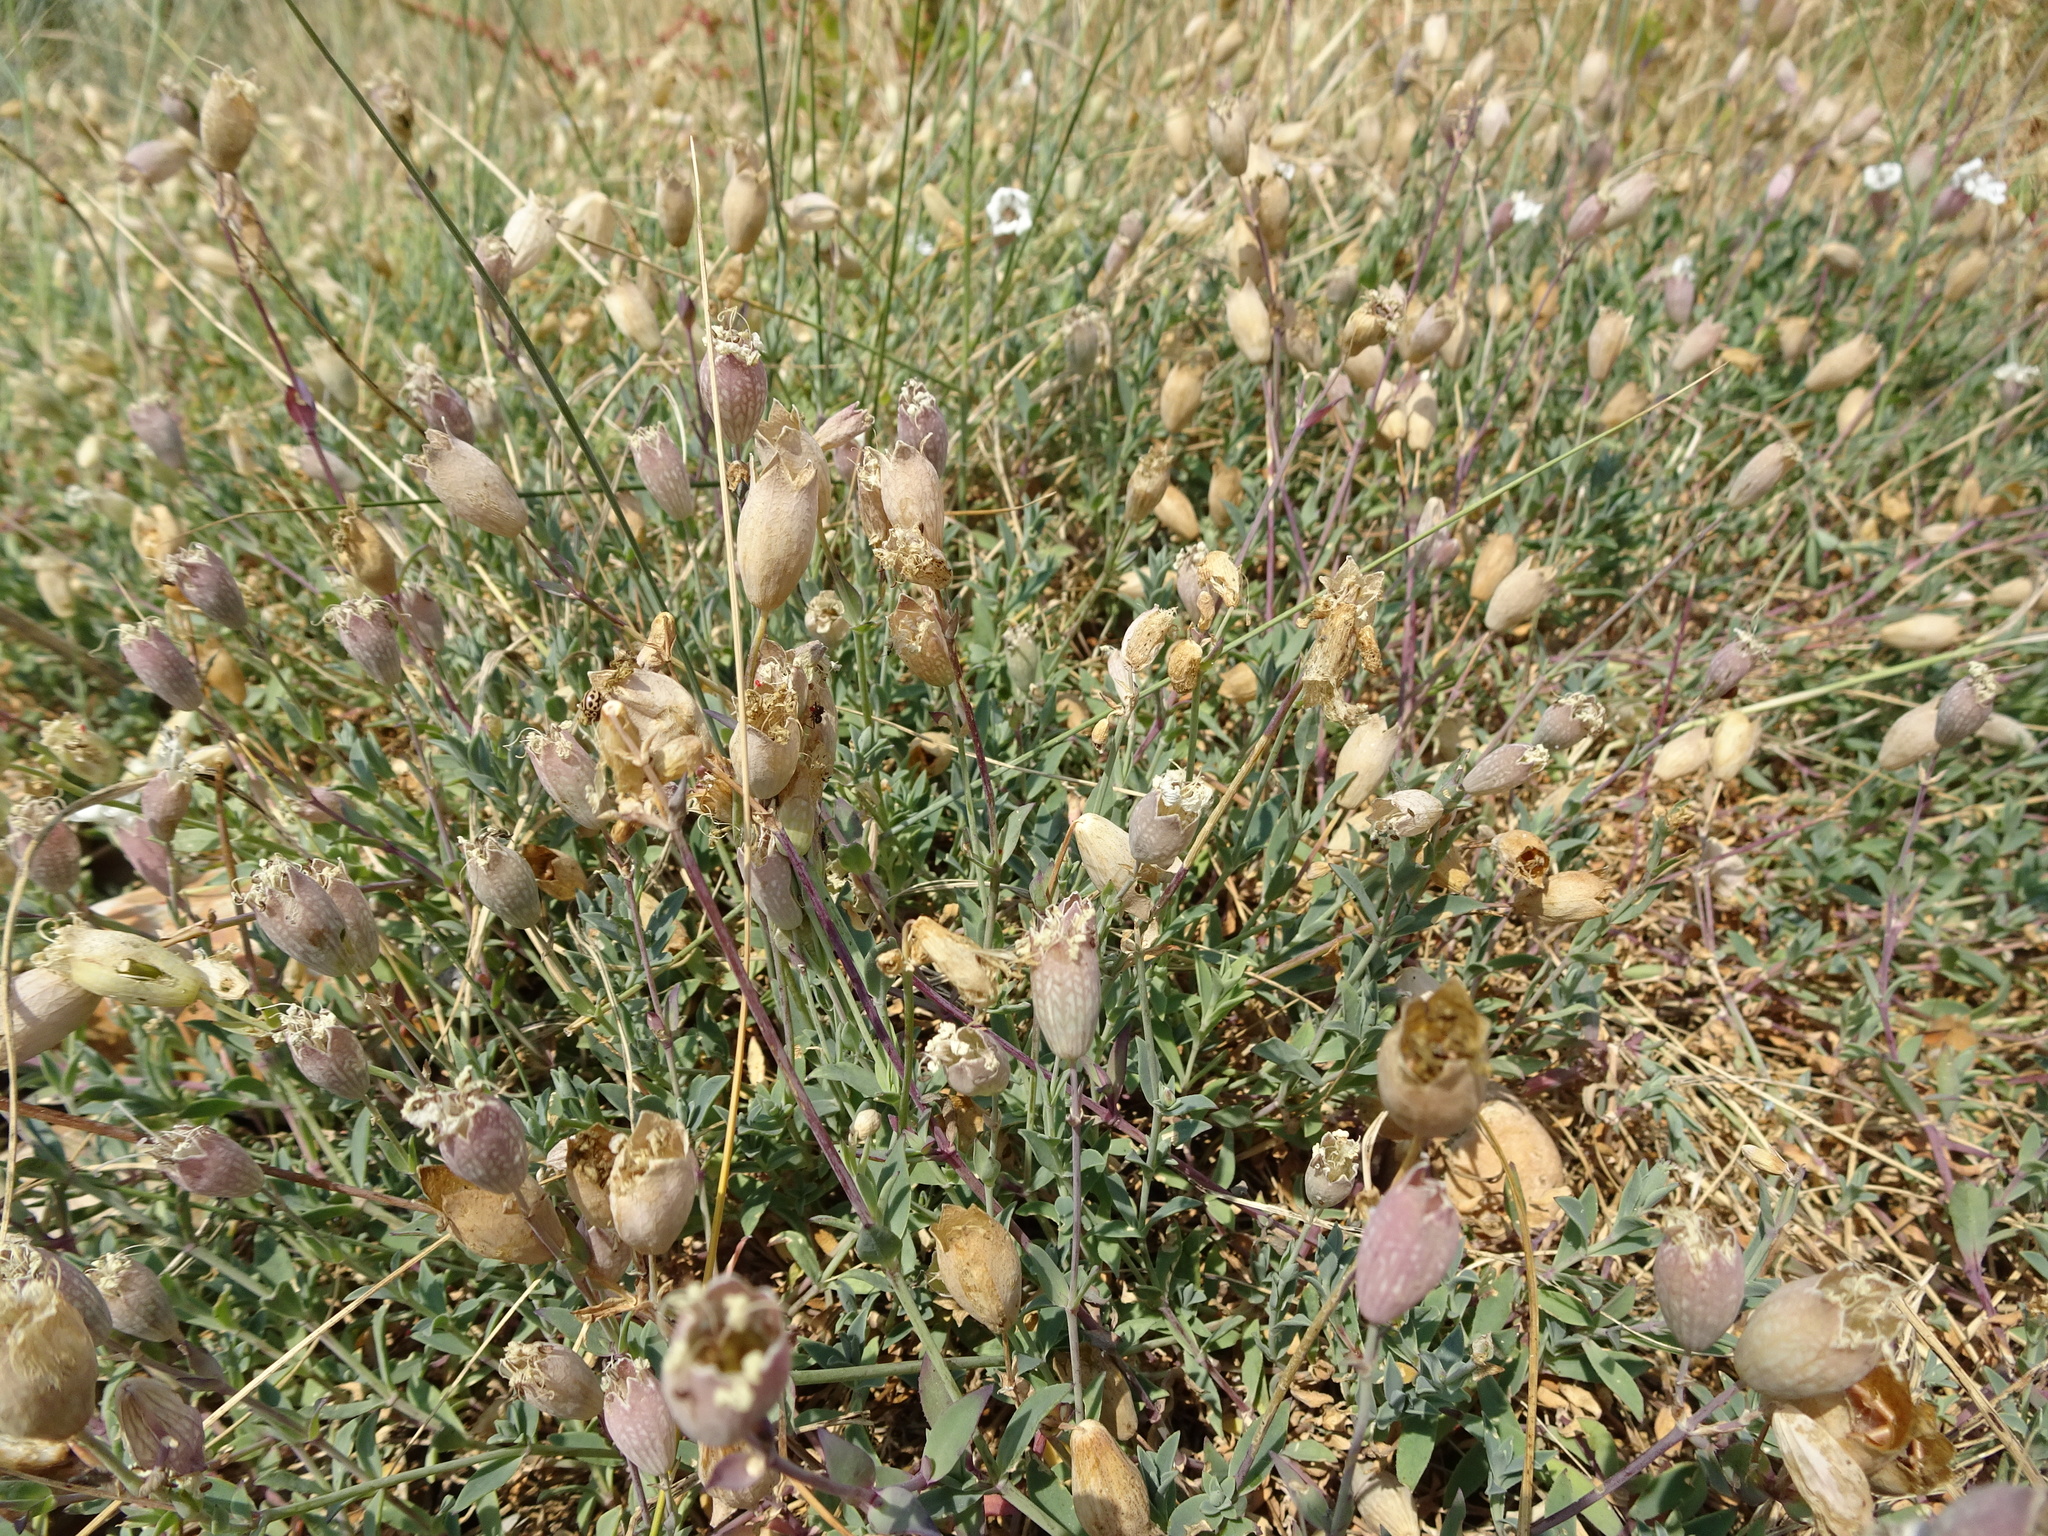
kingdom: Plantae
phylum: Tracheophyta
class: Magnoliopsida
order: Caryophyllales
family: Caryophyllaceae
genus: Silene
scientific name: Silene uniflora
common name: Sea campion
